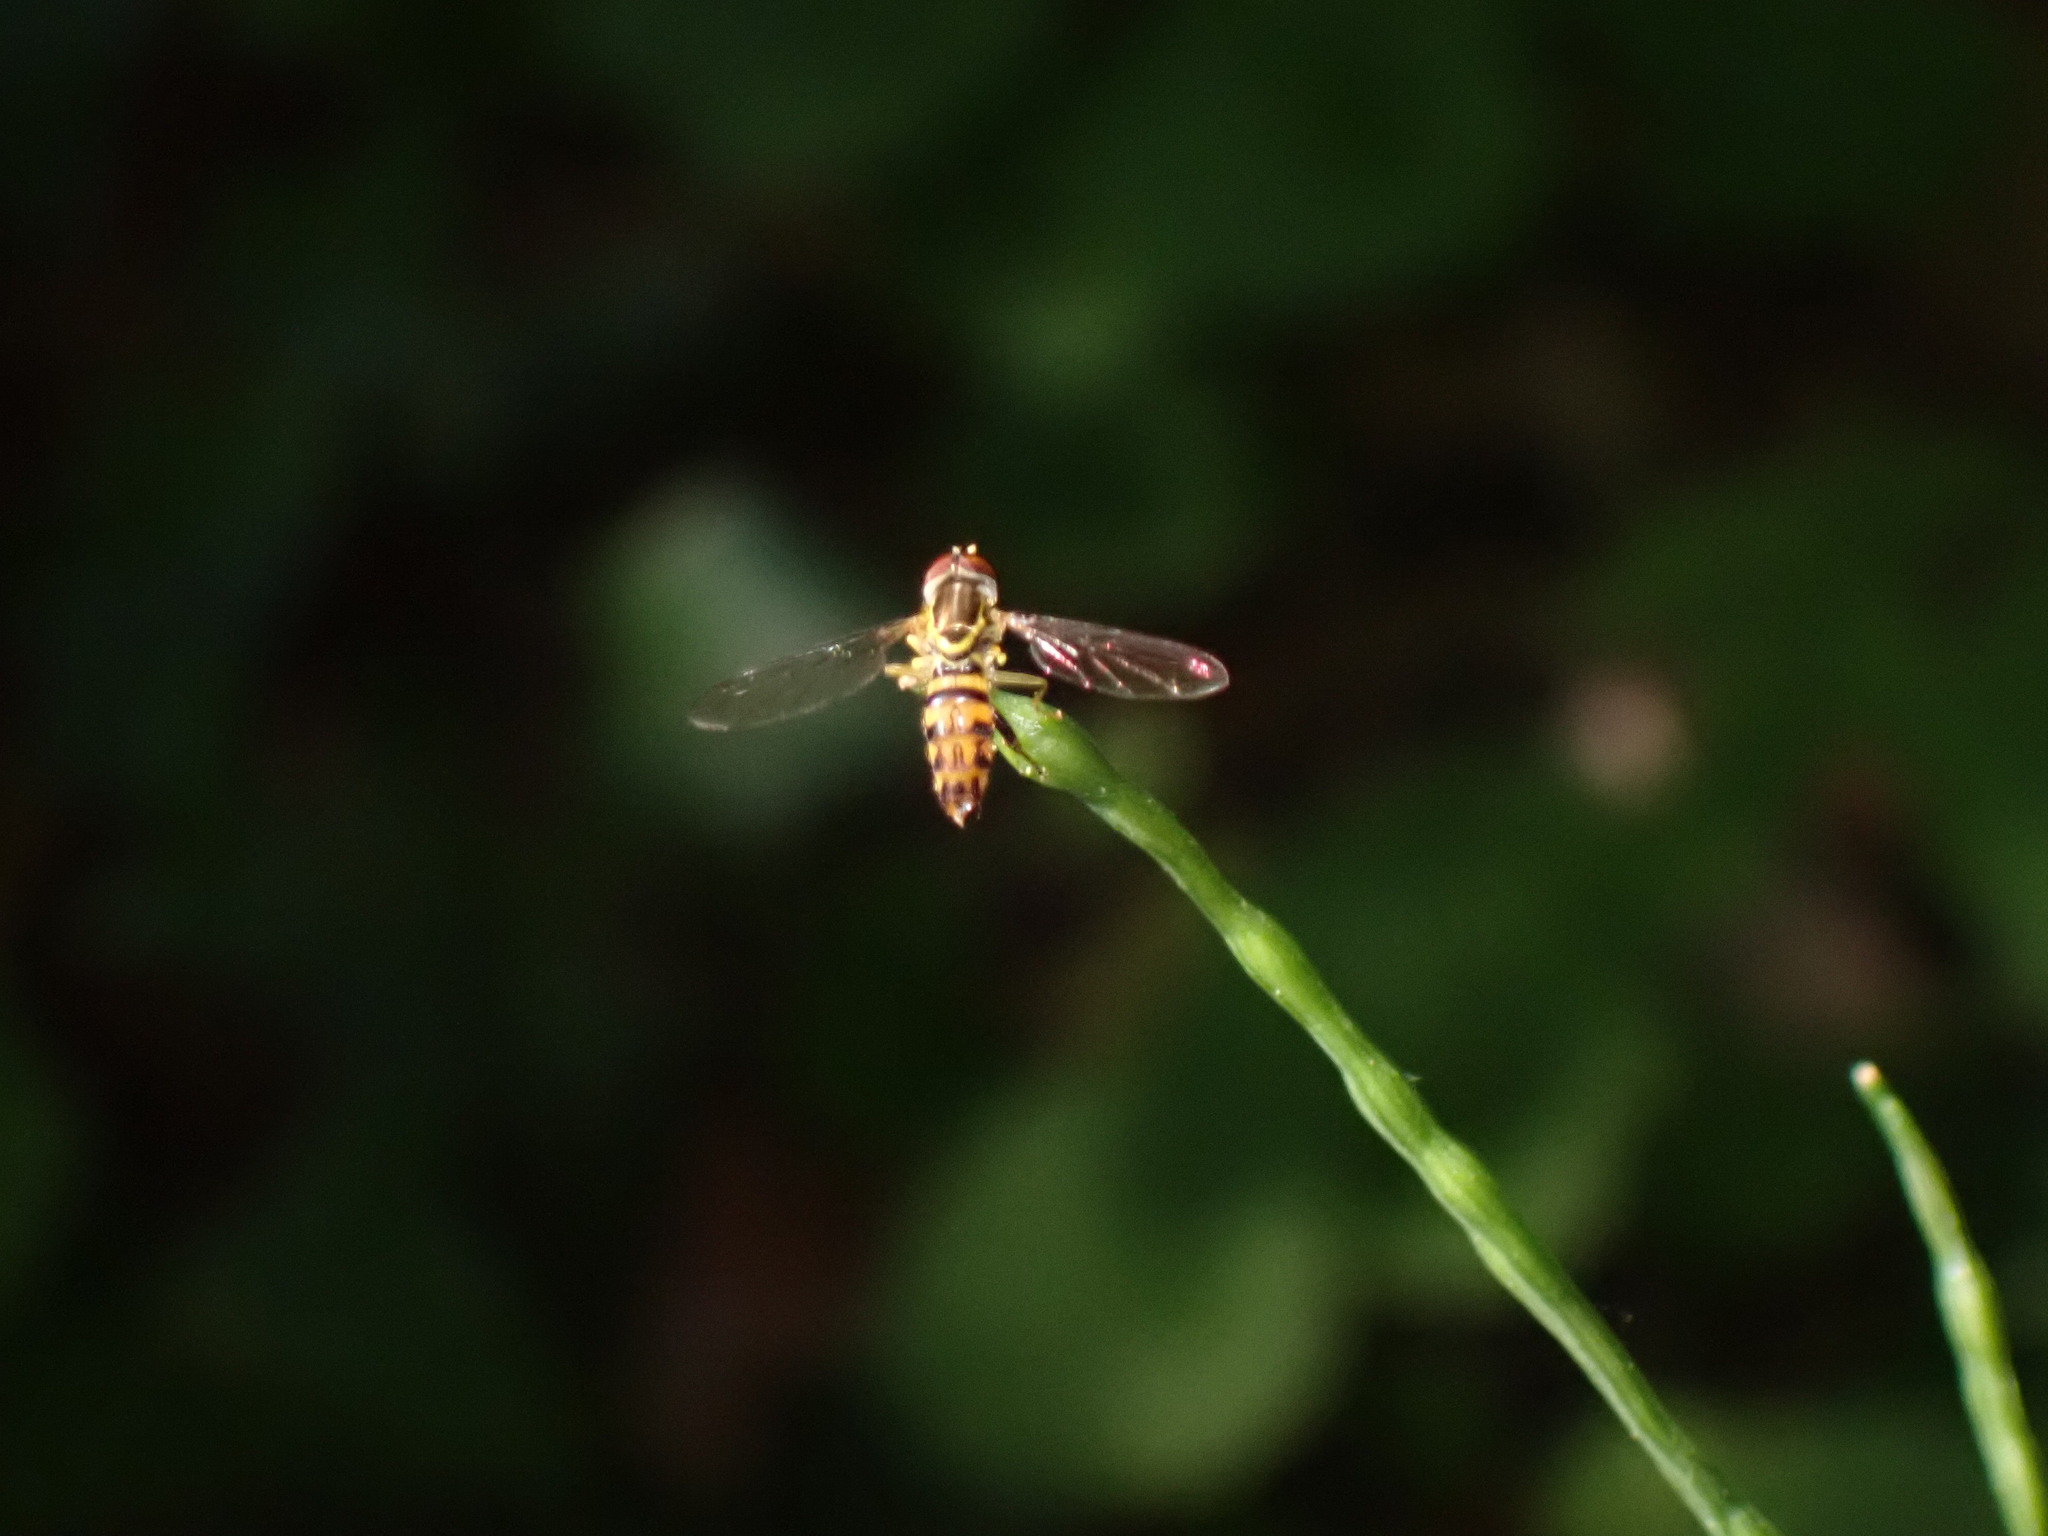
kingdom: Animalia
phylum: Arthropoda
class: Insecta
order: Diptera
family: Syrphidae
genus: Toxomerus
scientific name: Toxomerus geminatus
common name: Eastern calligrapher
